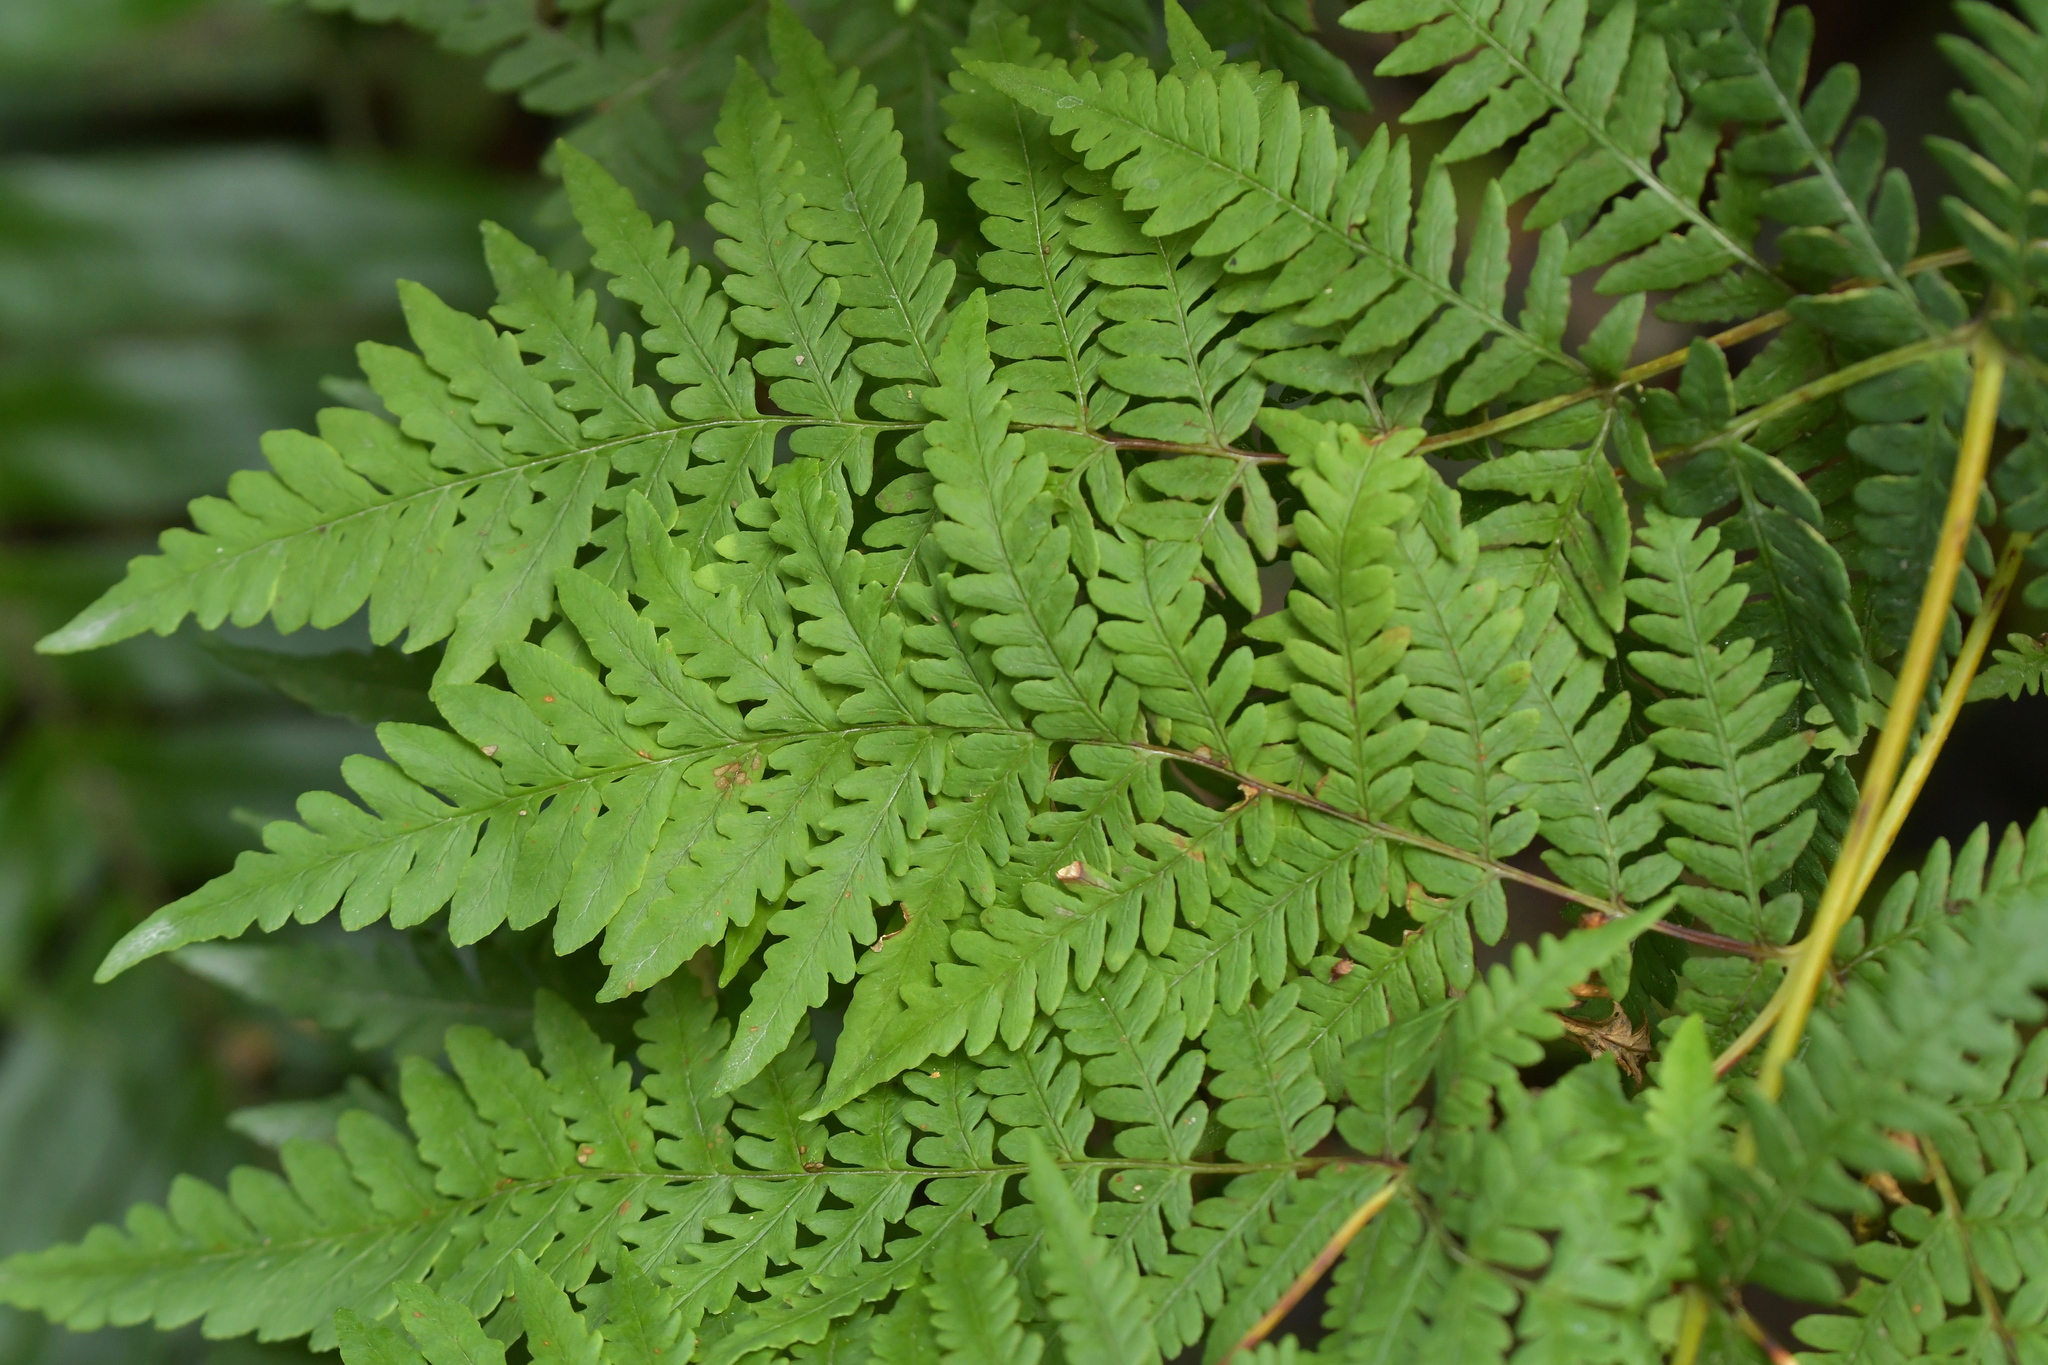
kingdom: Plantae
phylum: Tracheophyta
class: Polypodiopsida
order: Polypodiales
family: Dennstaedtiaceae
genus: Histiopteris
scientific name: Histiopteris incisa
